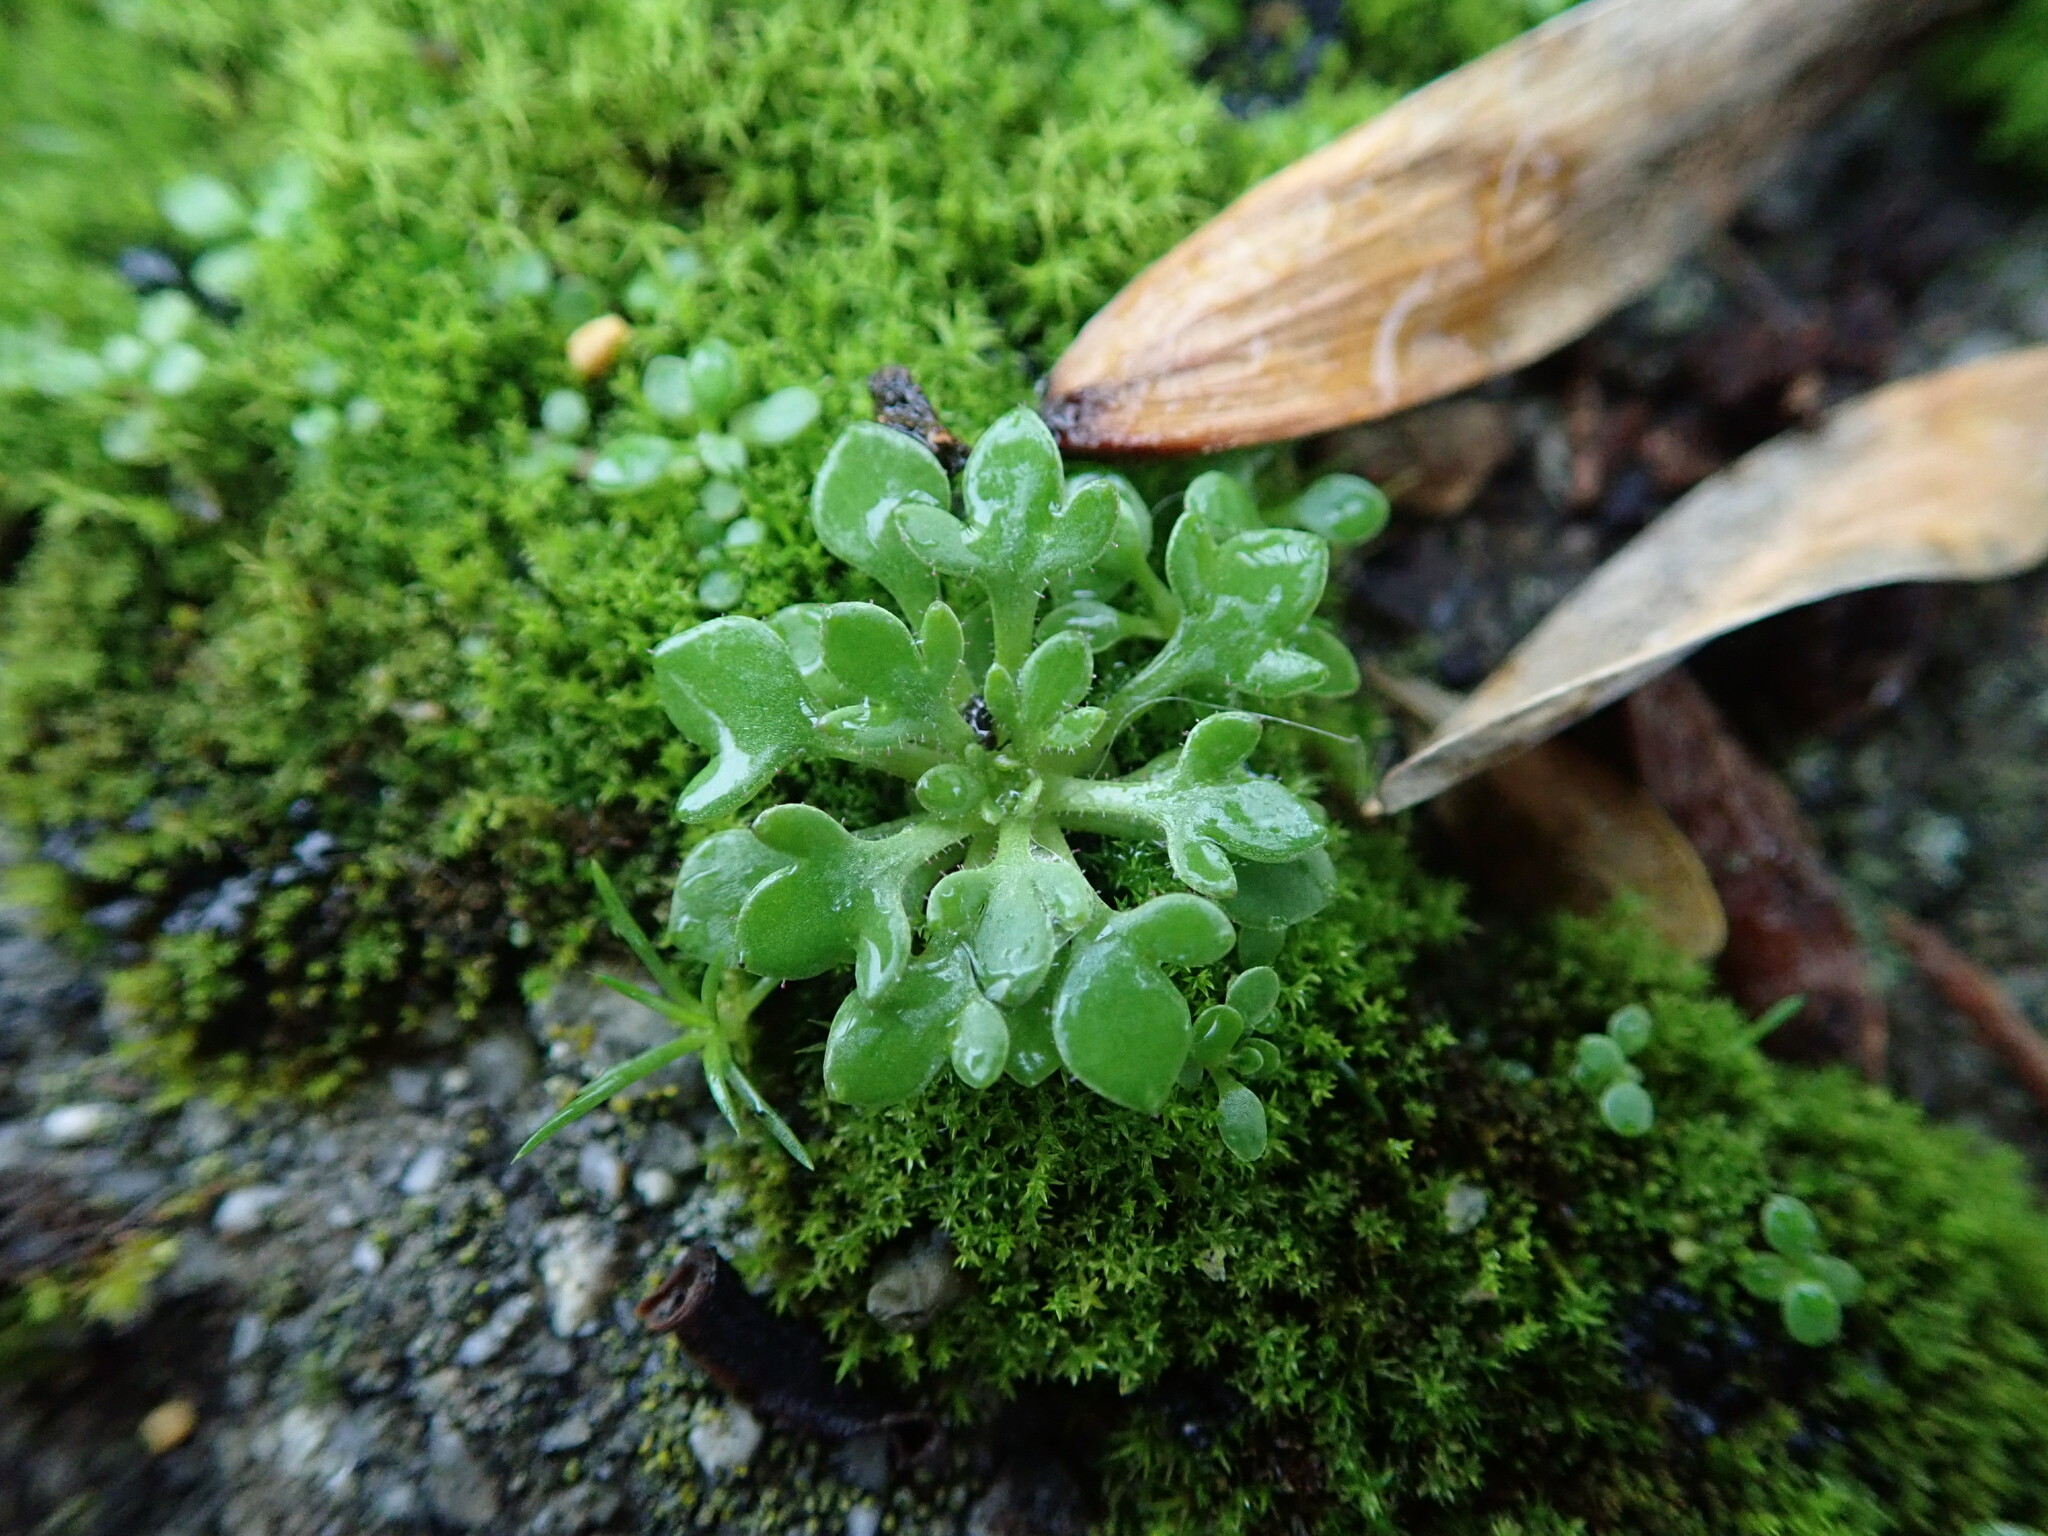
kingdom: Plantae
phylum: Tracheophyta
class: Magnoliopsida
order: Saxifragales
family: Saxifragaceae
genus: Saxifraga
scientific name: Saxifraga tridactylites
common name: Rue-leaved saxifrage
